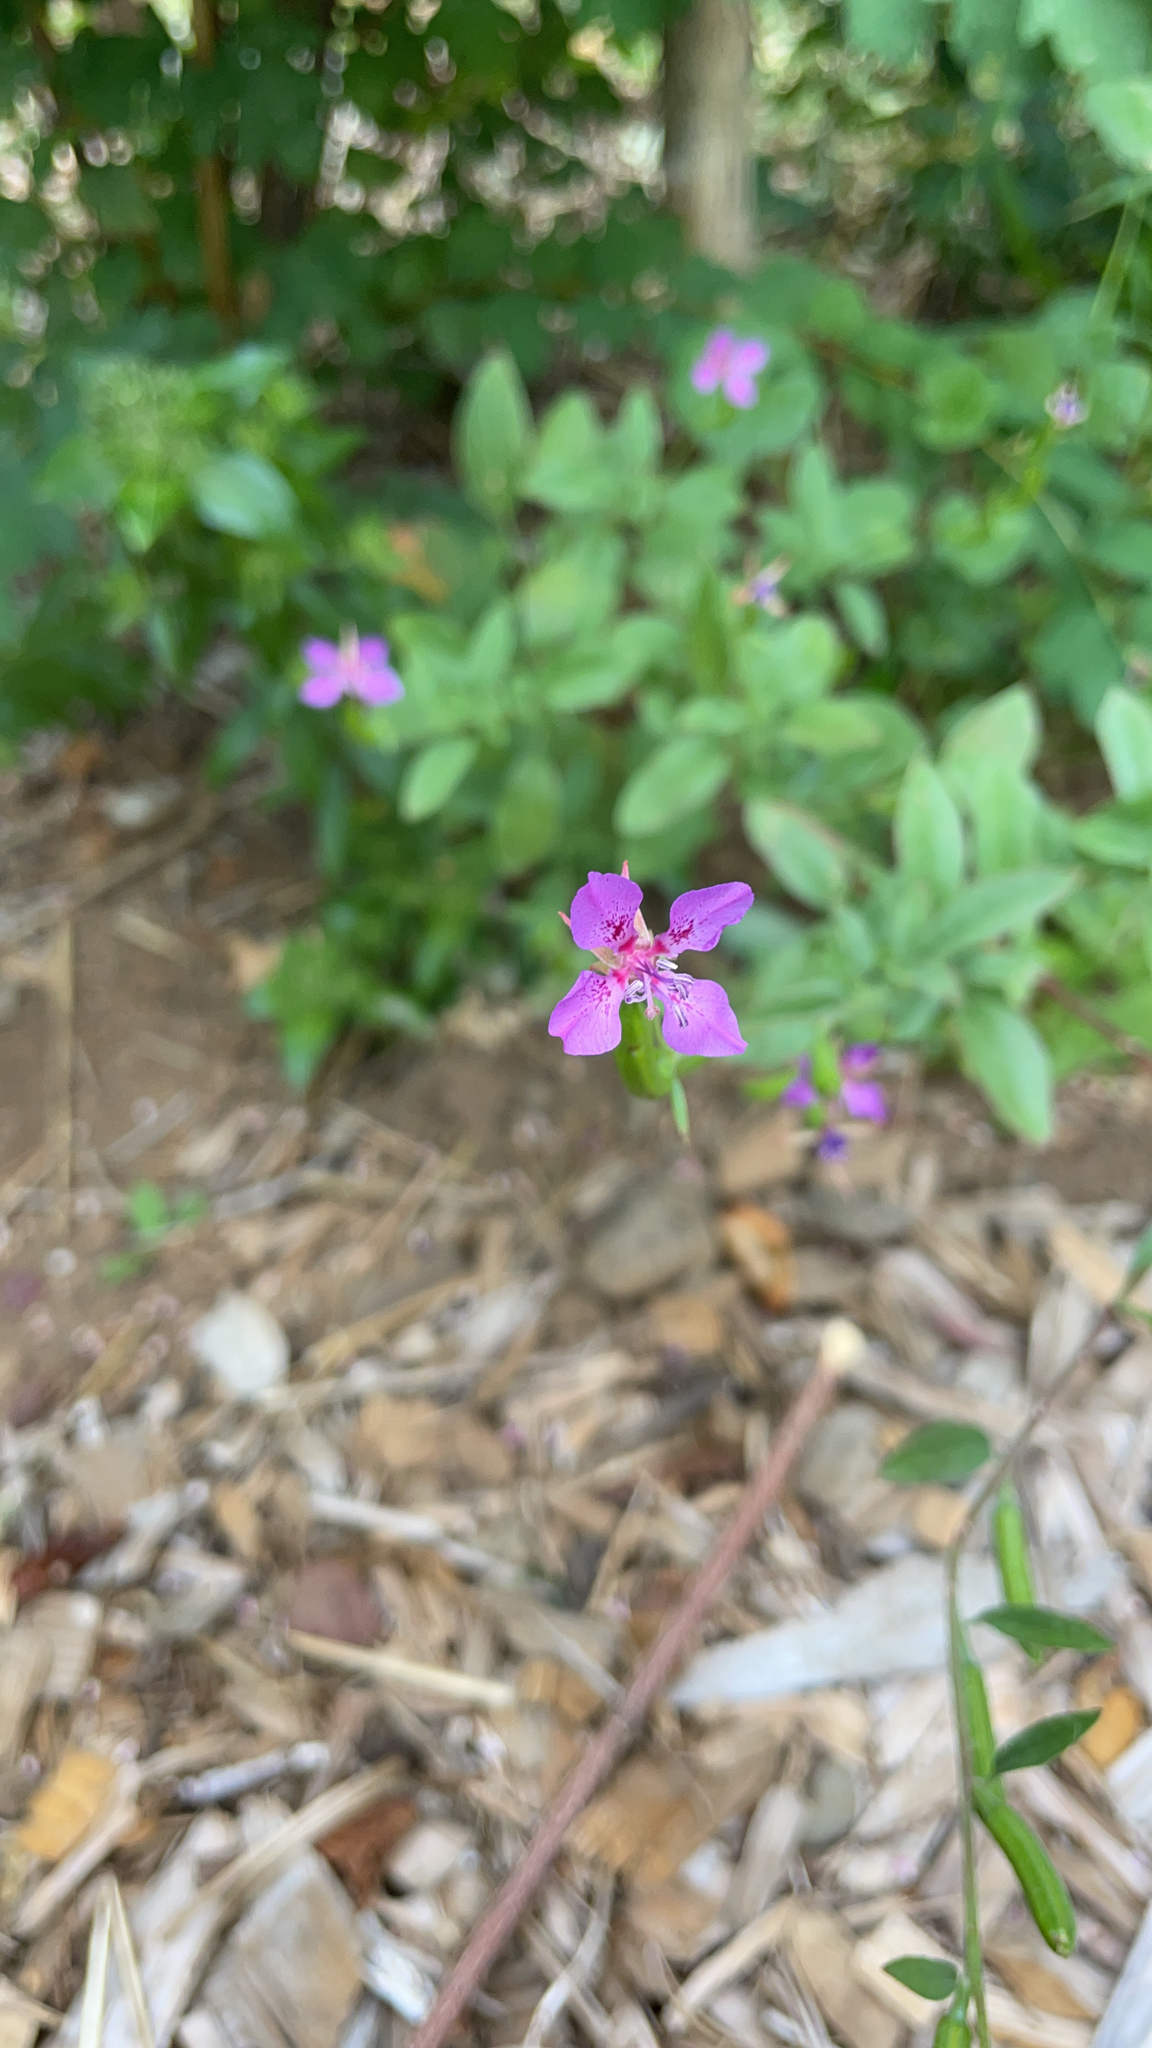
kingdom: Plantae
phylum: Tracheophyta
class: Magnoliopsida
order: Myrtales
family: Onagraceae
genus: Clarkia
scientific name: Clarkia rhomboidea
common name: Broadleaf clarkia
